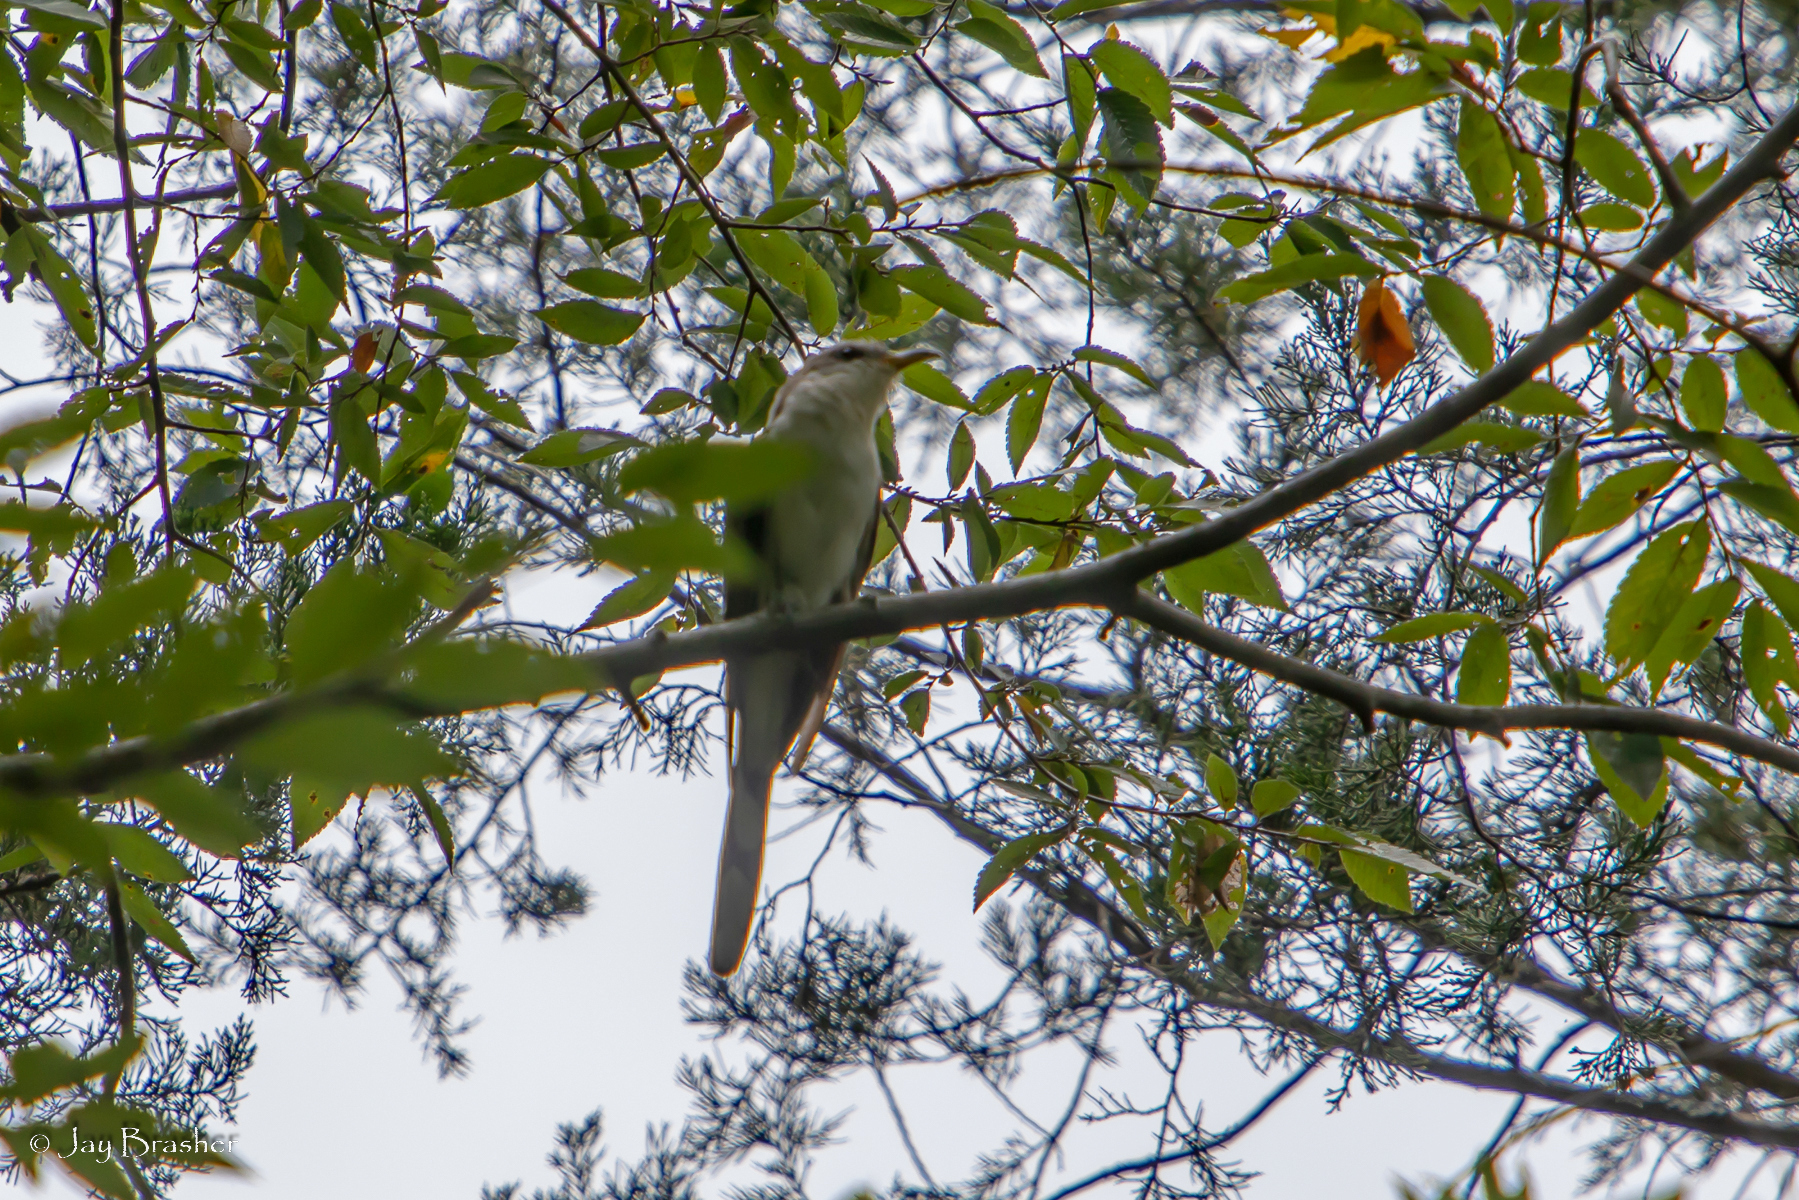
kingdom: Animalia
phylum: Chordata
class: Aves
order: Cuculiformes
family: Cuculidae
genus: Coccyzus
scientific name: Coccyzus americanus
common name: Yellow-billed cuckoo
